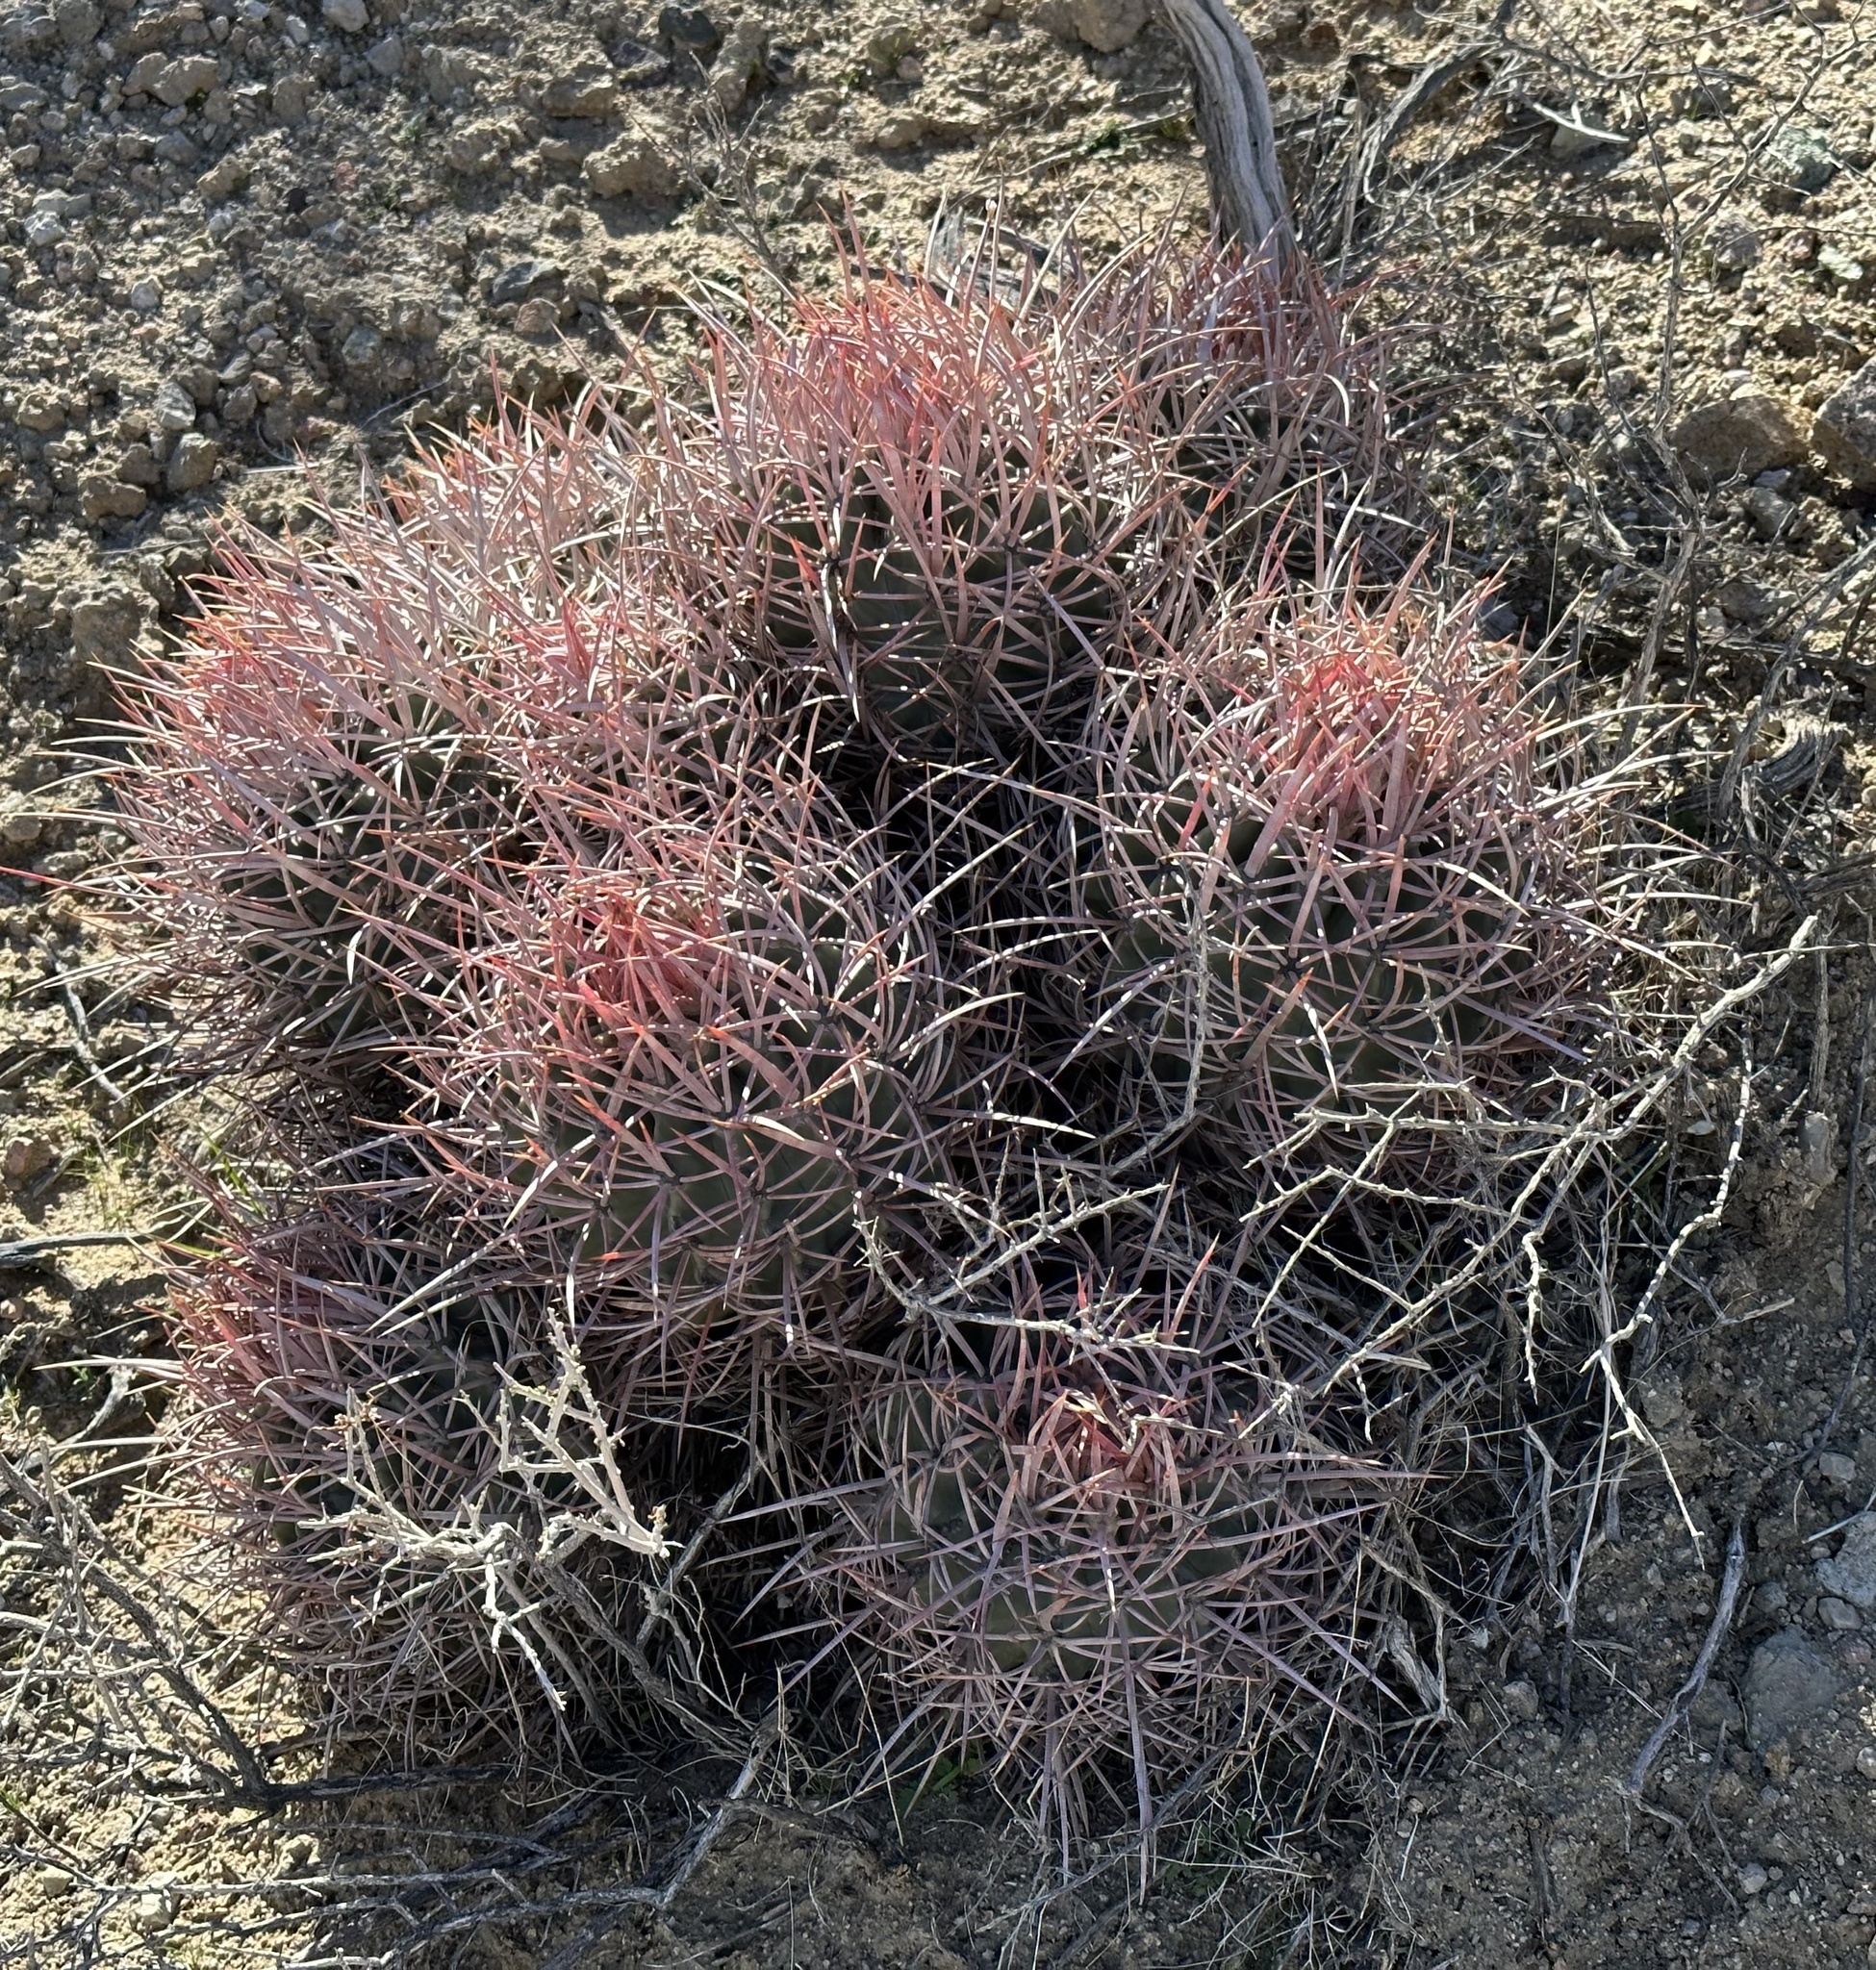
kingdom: Plantae
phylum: Tracheophyta
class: Magnoliopsida
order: Caryophyllales
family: Cactaceae
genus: Echinocactus
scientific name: Echinocactus polycephalus
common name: Cottontop cactus
